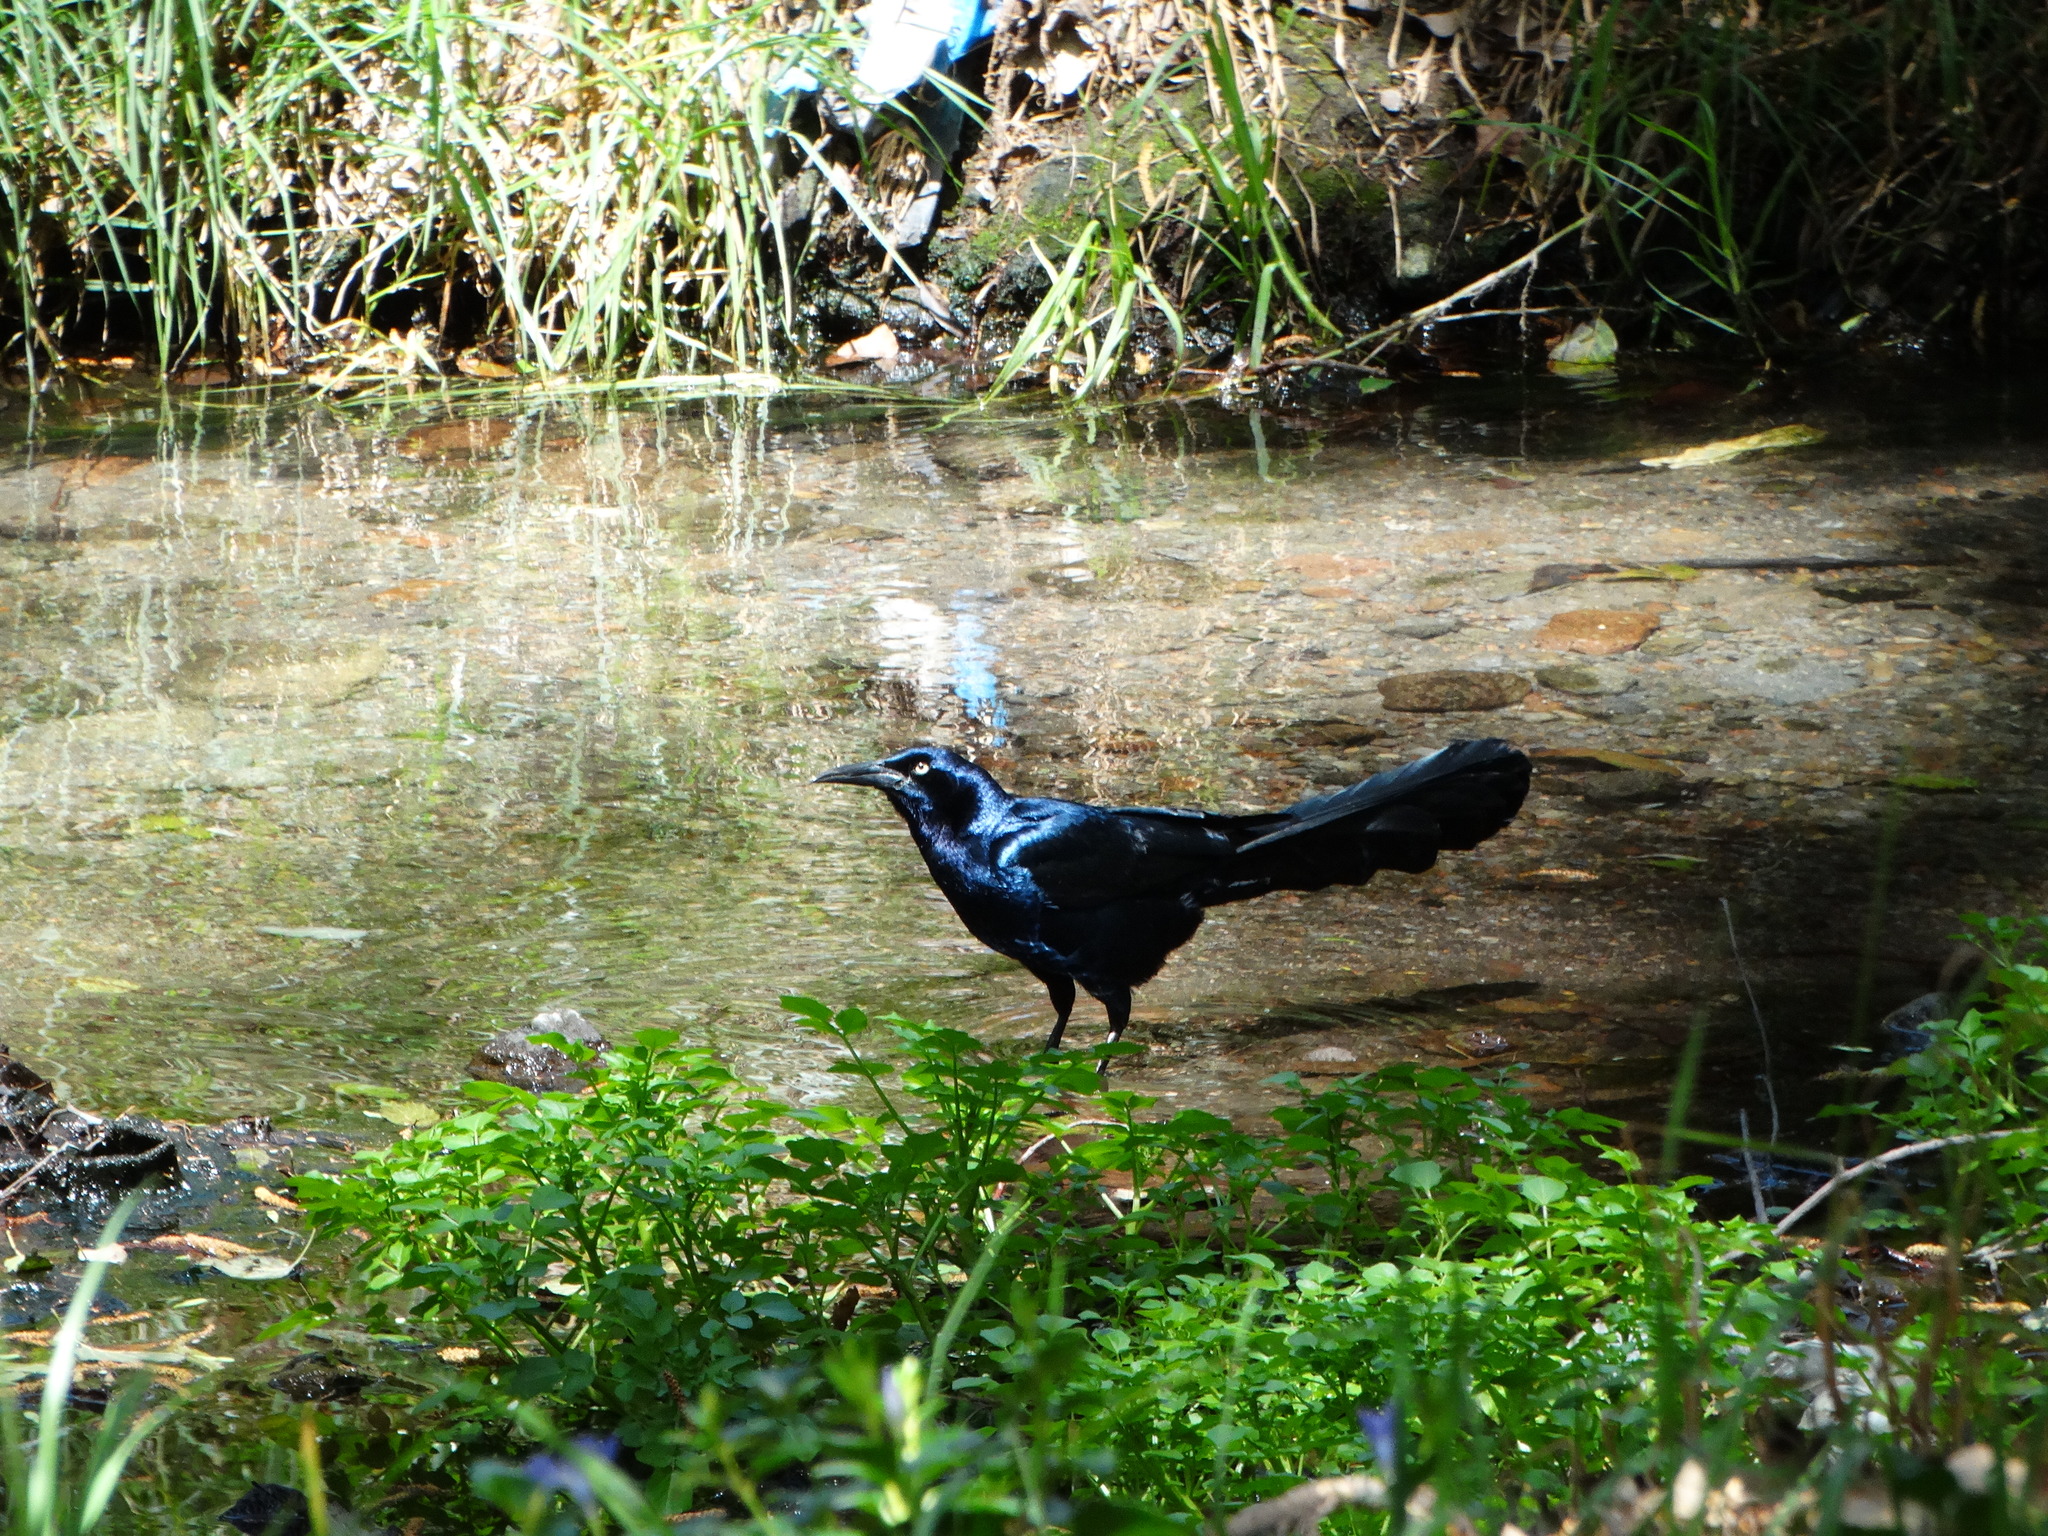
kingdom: Animalia
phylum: Chordata
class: Aves
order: Passeriformes
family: Icteridae
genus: Quiscalus
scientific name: Quiscalus mexicanus
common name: Great-tailed grackle
